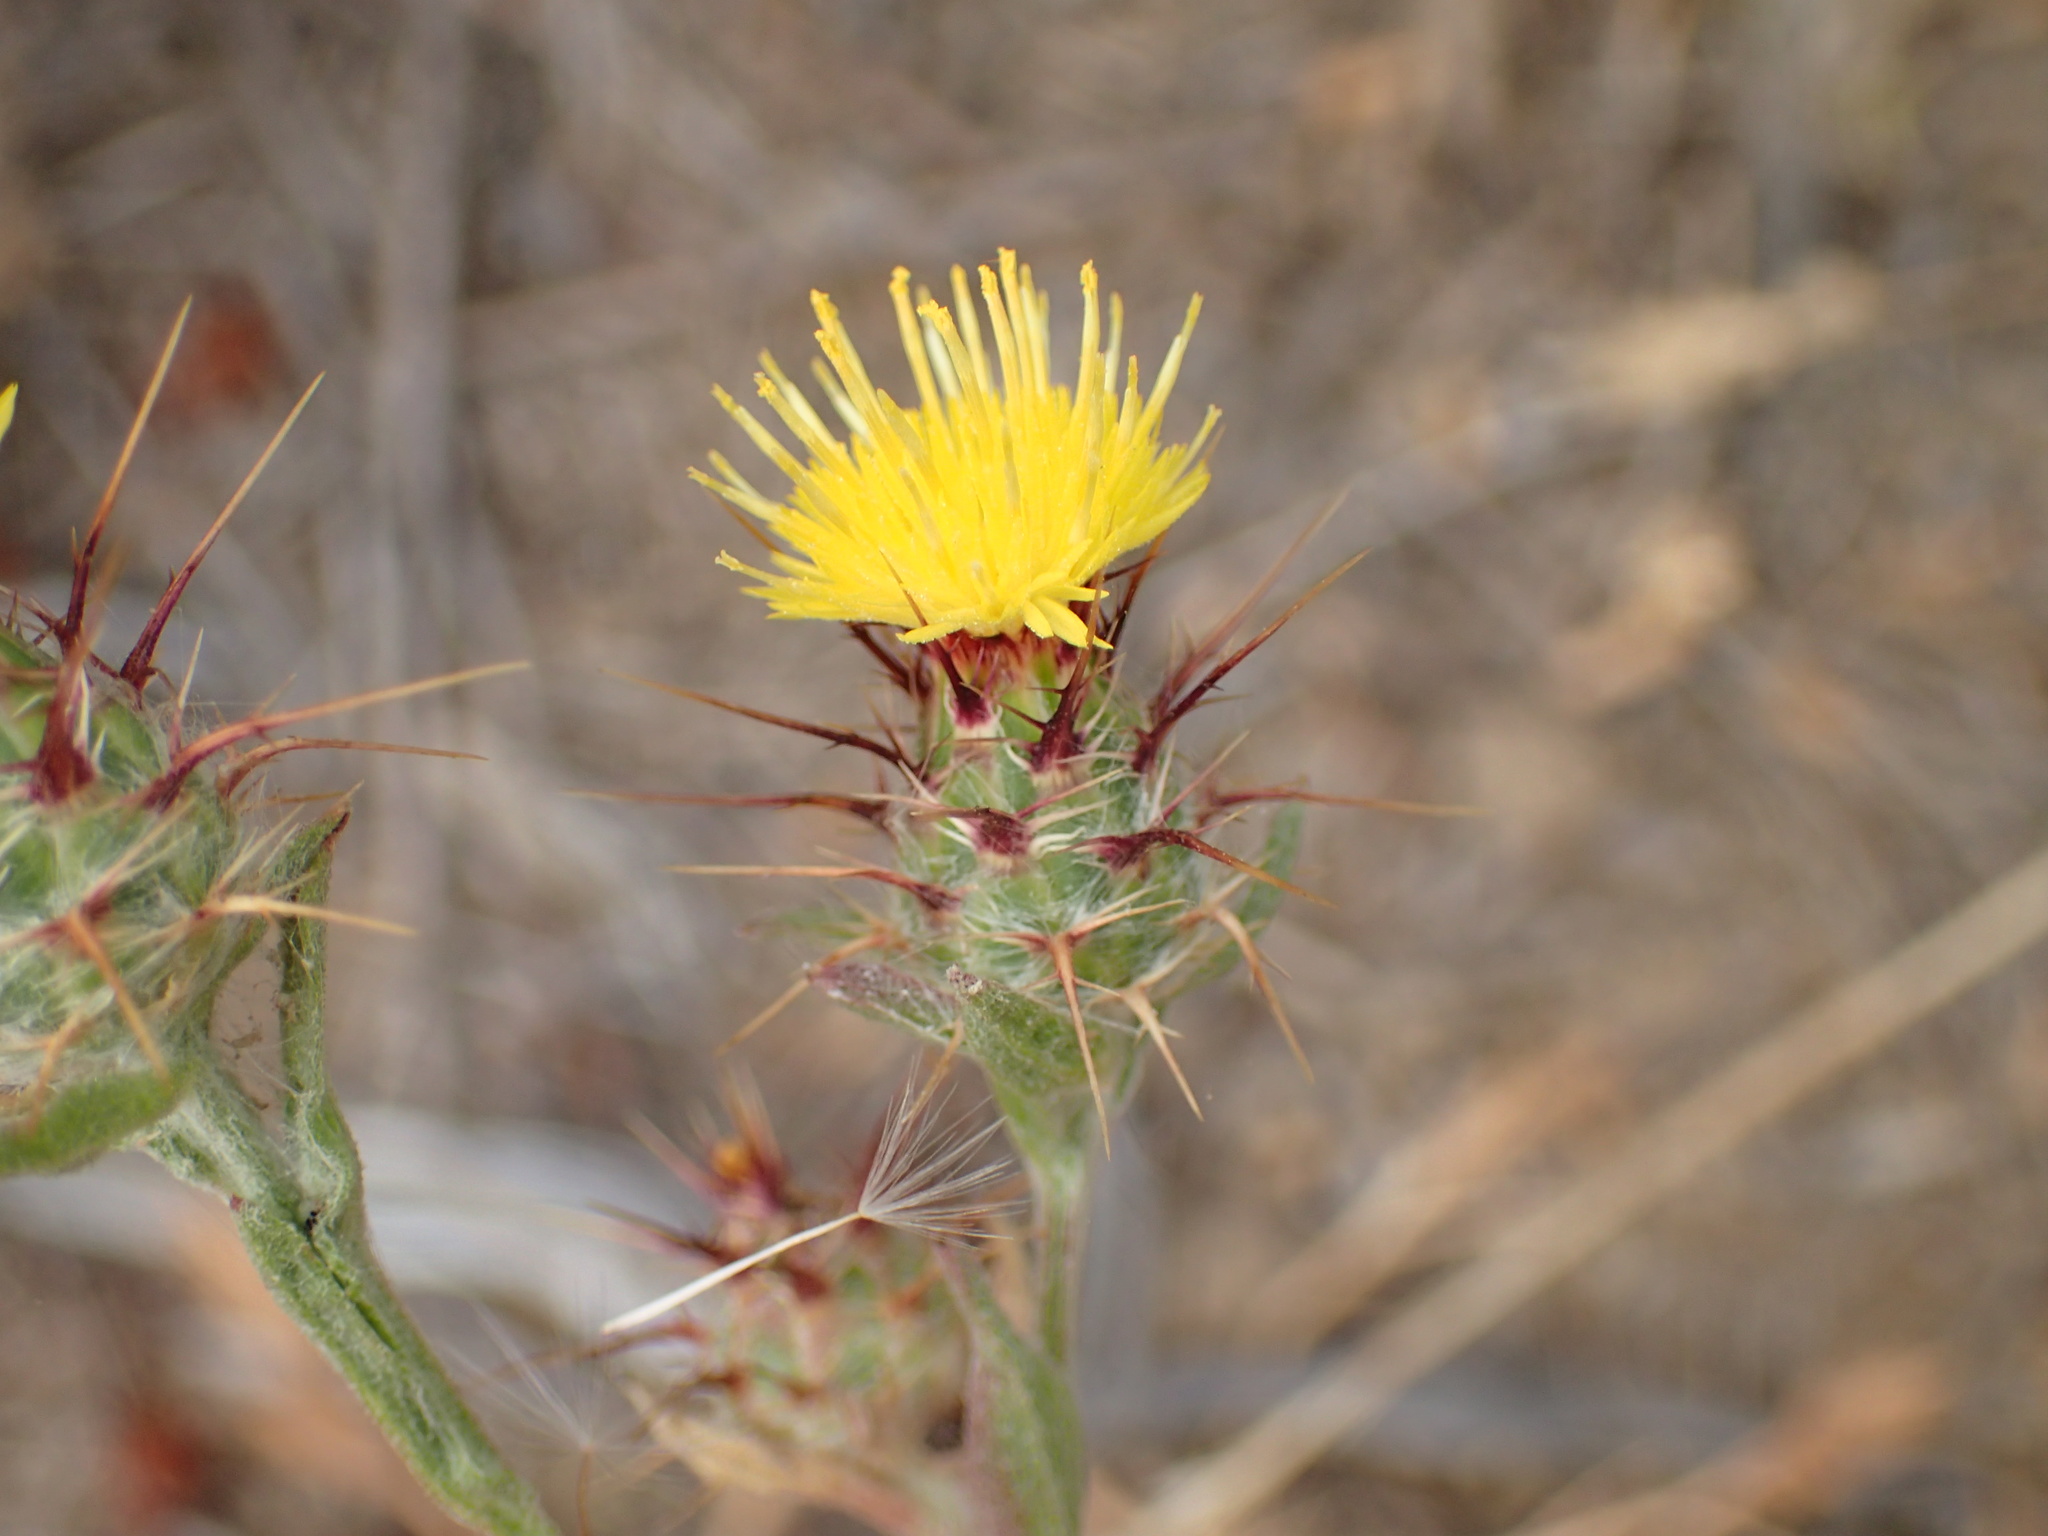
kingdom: Plantae
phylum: Tracheophyta
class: Magnoliopsida
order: Asterales
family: Asteraceae
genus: Centaurea
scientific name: Centaurea melitensis
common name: Maltese star-thistle
